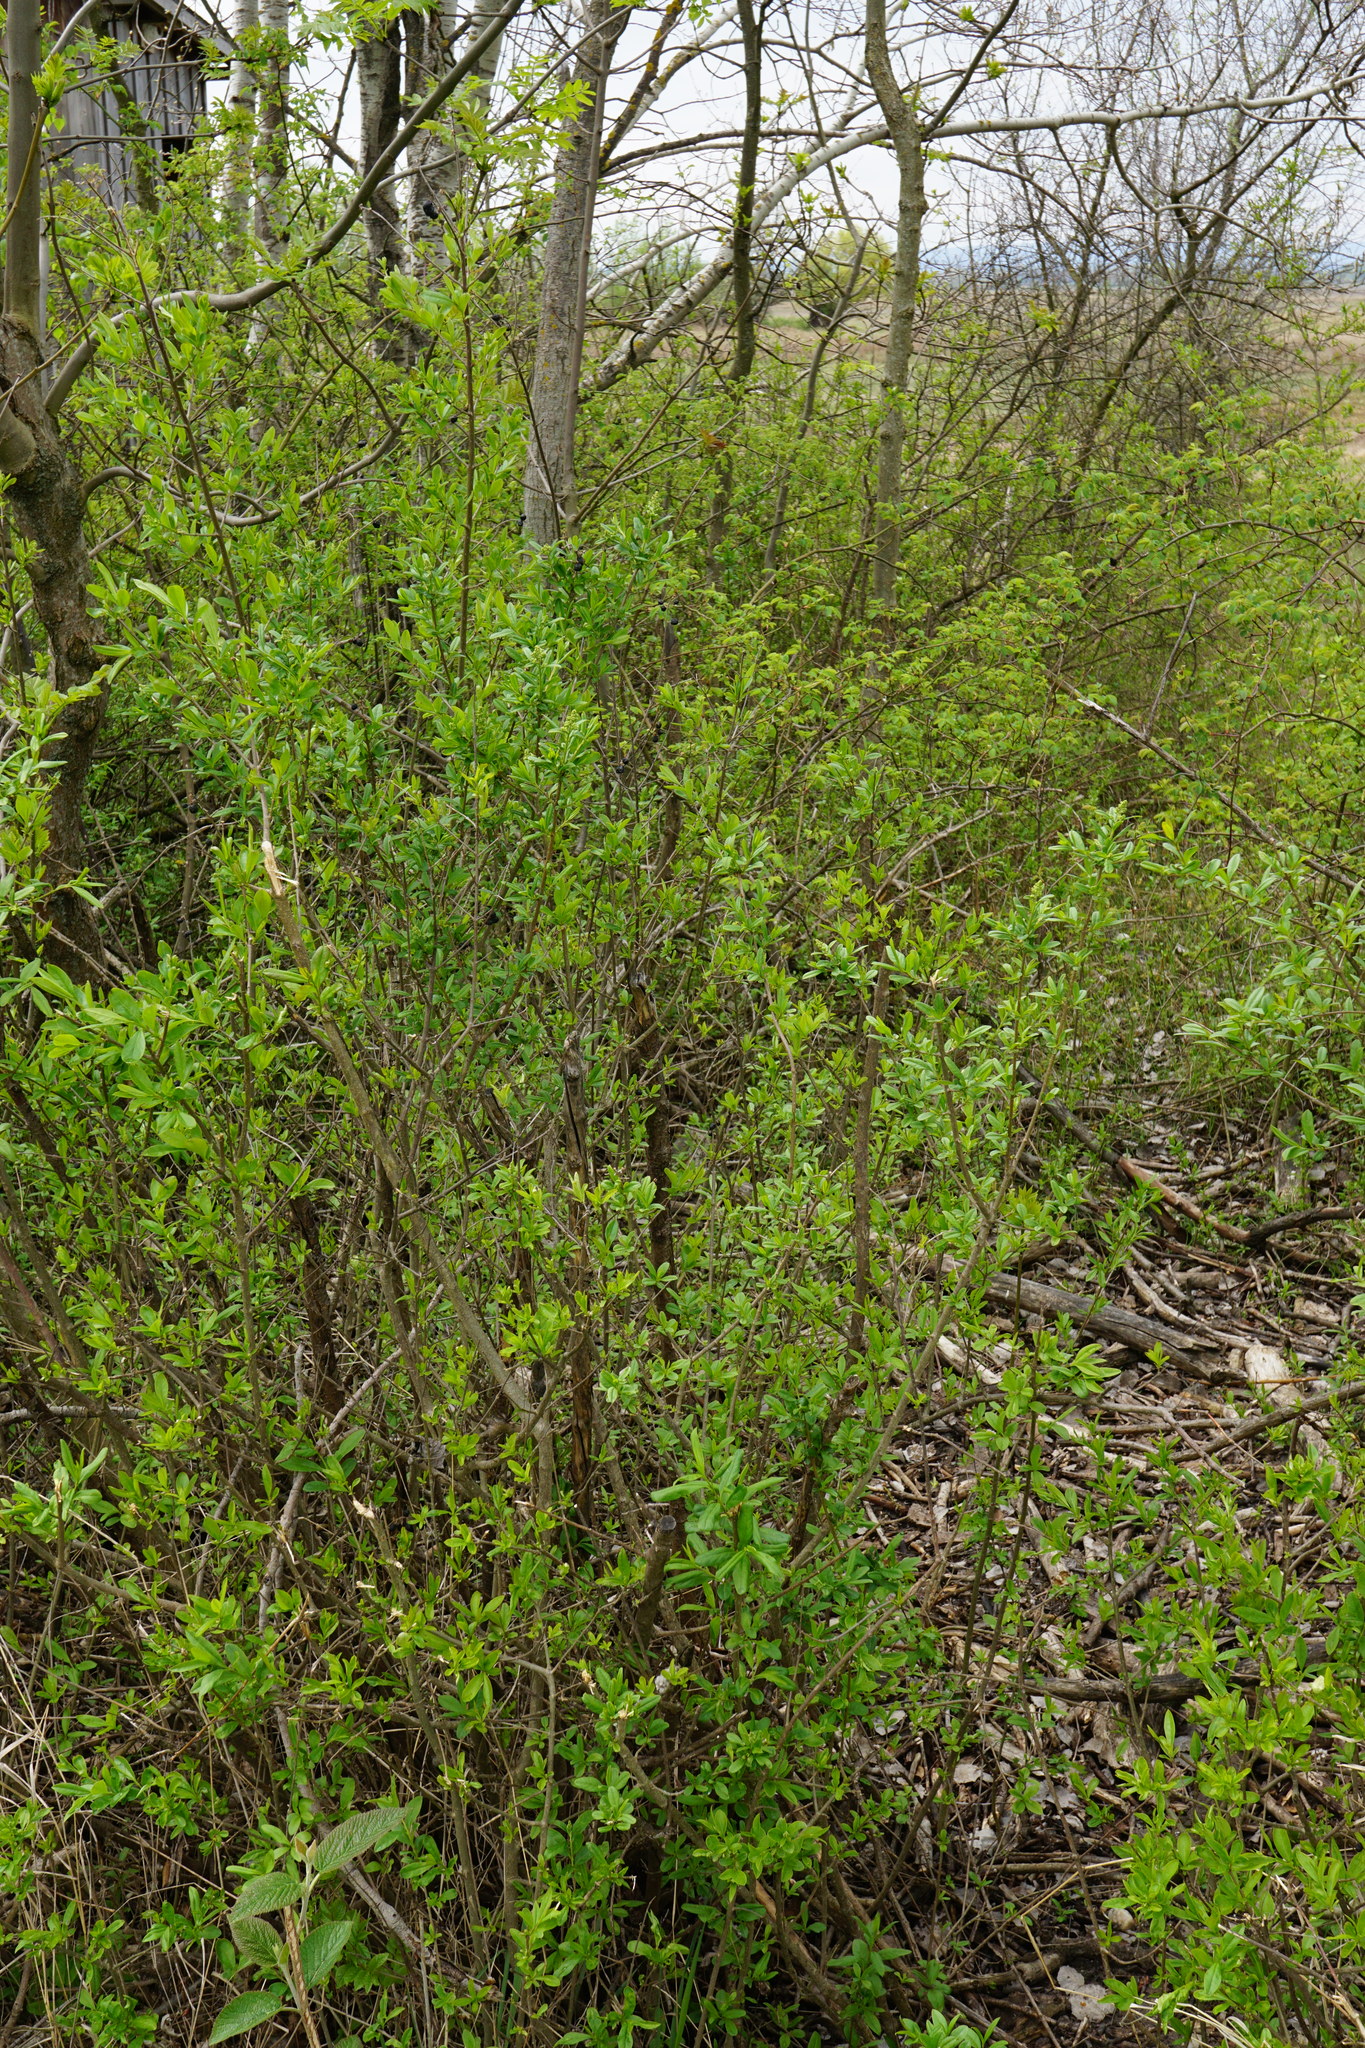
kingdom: Plantae
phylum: Tracheophyta
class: Magnoliopsida
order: Lamiales
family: Oleaceae
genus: Ligustrum
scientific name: Ligustrum vulgare
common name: Wild privet
